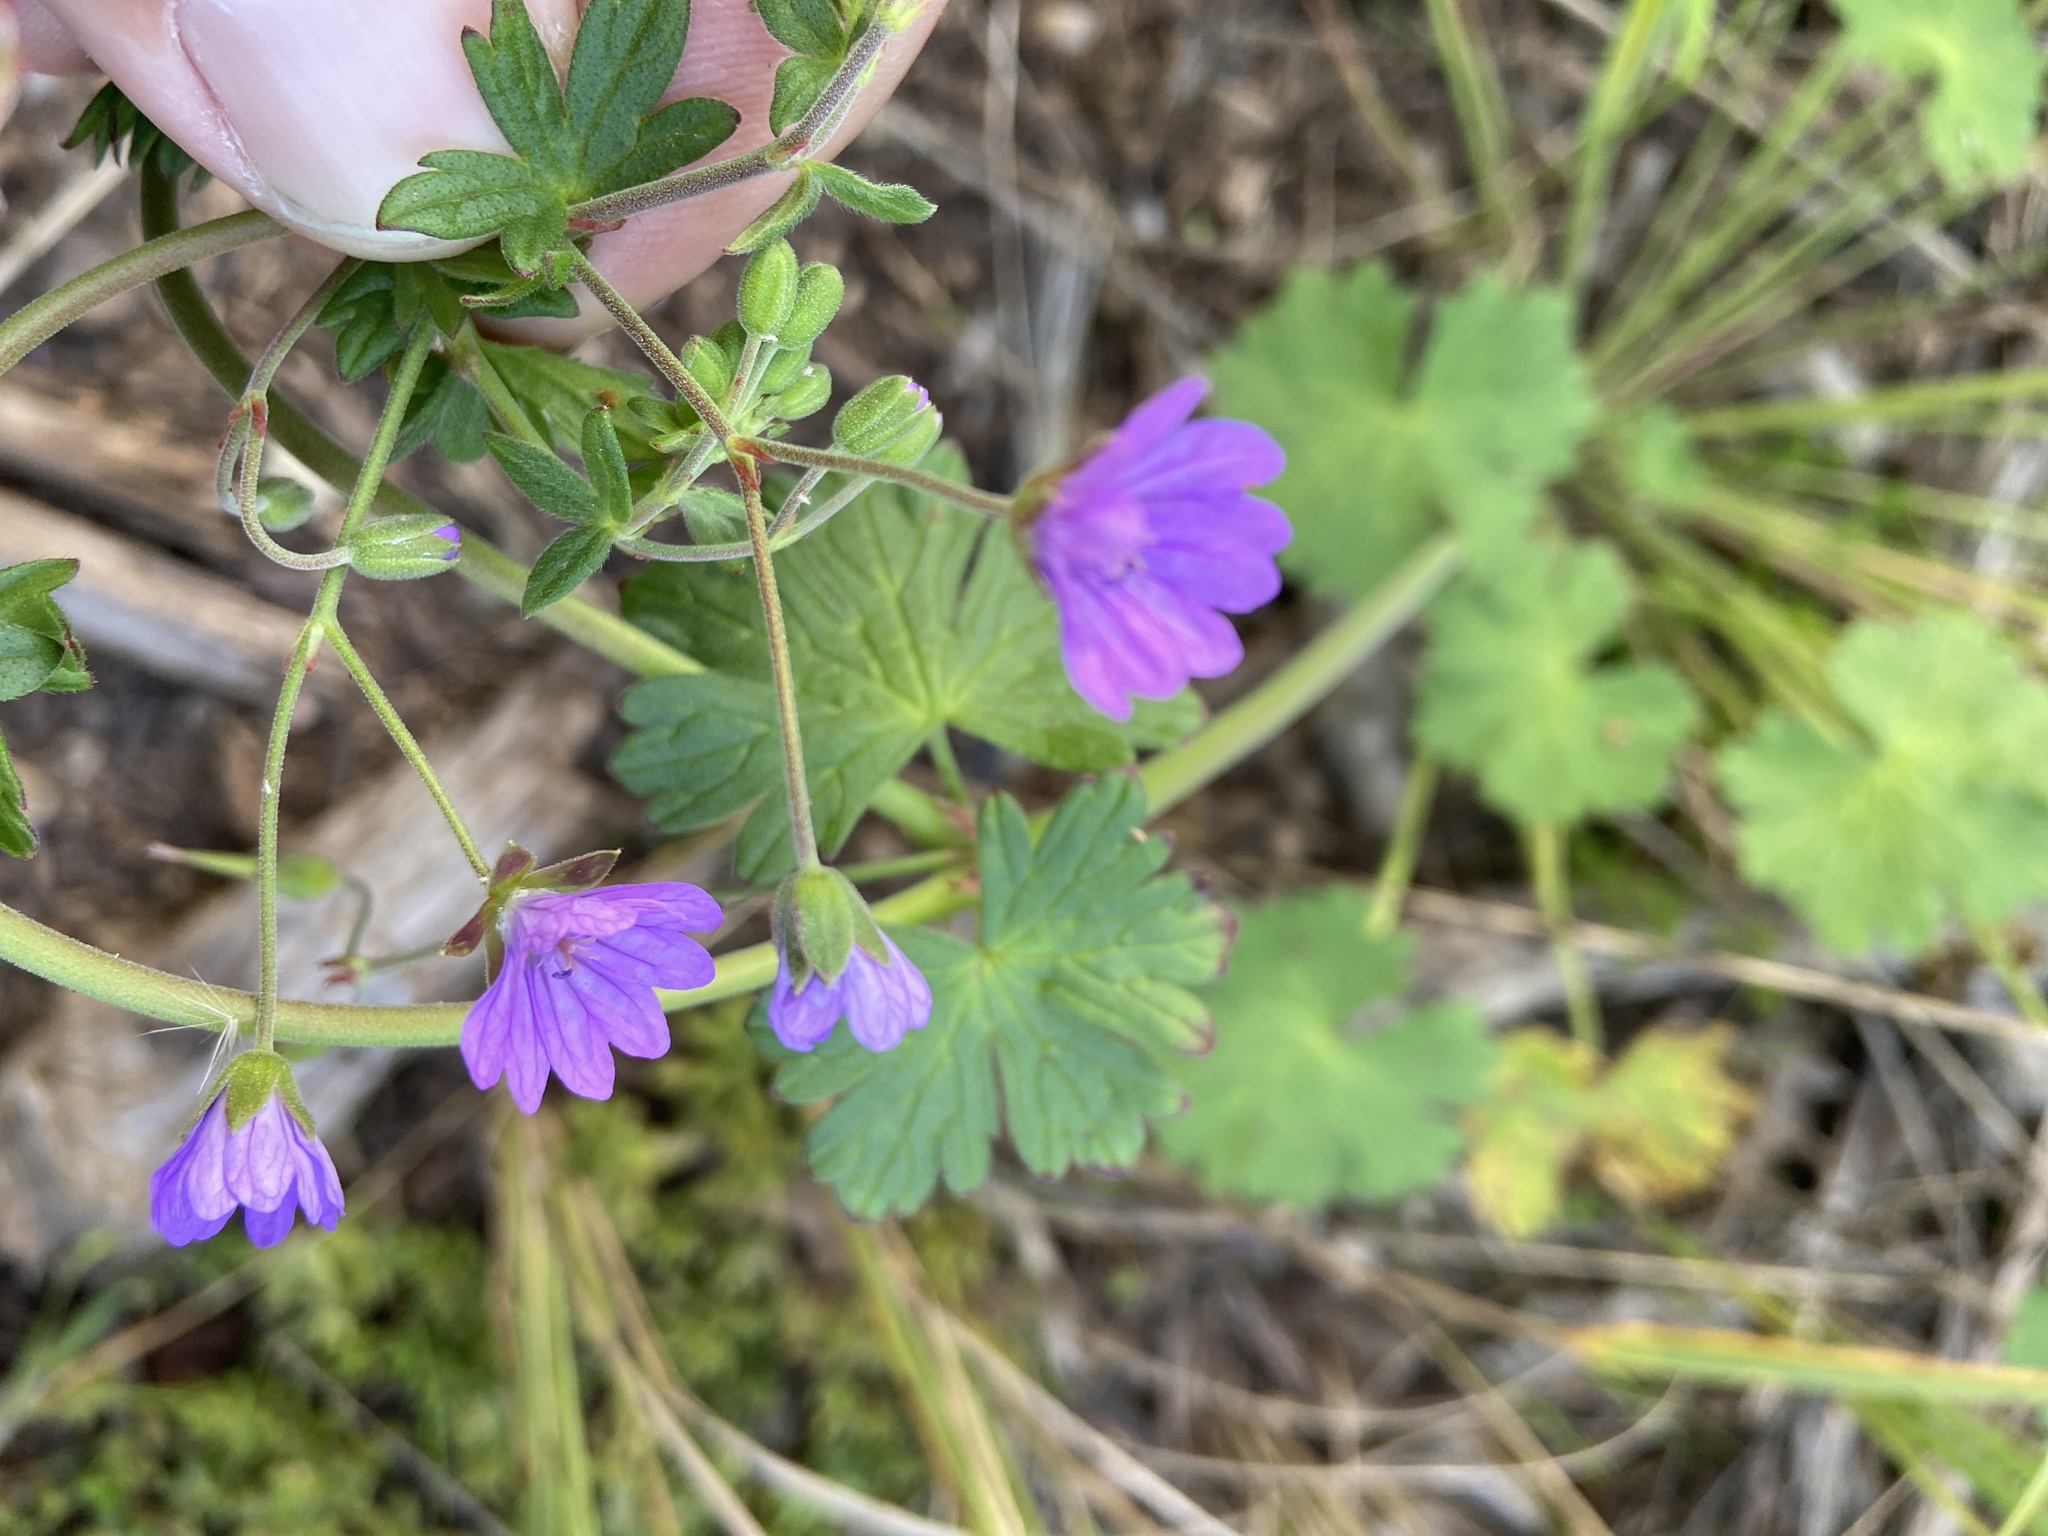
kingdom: Plantae
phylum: Tracheophyta
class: Magnoliopsida
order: Geraniales
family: Geraniaceae
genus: Geranium
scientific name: Geranium pyrenaicum
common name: Hedgerow crane's-bill
